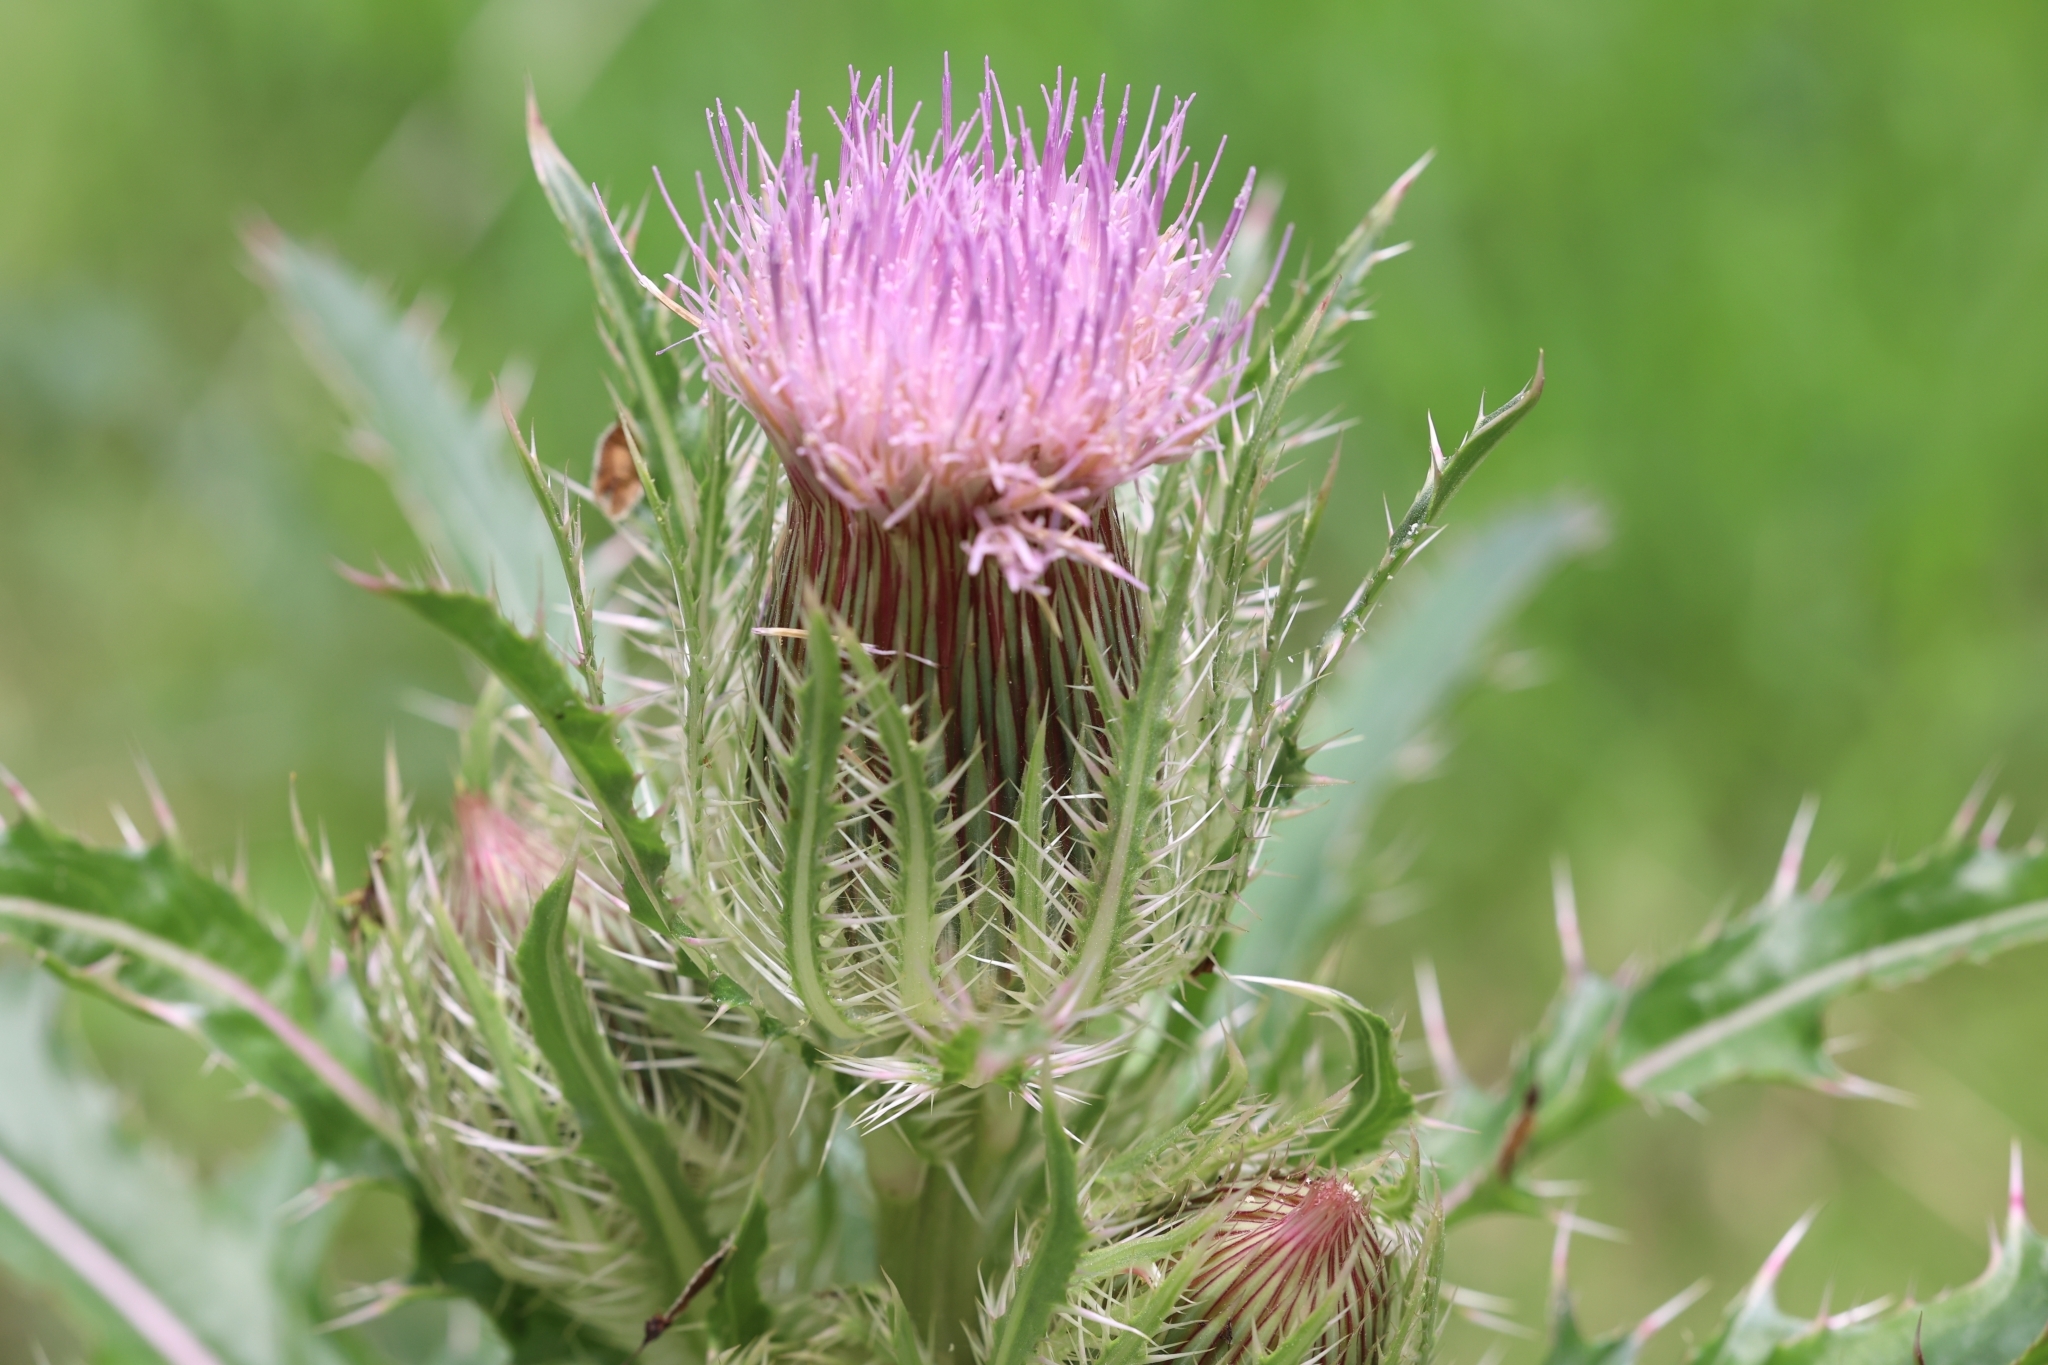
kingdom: Plantae
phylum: Tracheophyta
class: Magnoliopsida
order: Asterales
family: Asteraceae
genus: Cirsium
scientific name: Cirsium horridulum
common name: Bristly thistle
